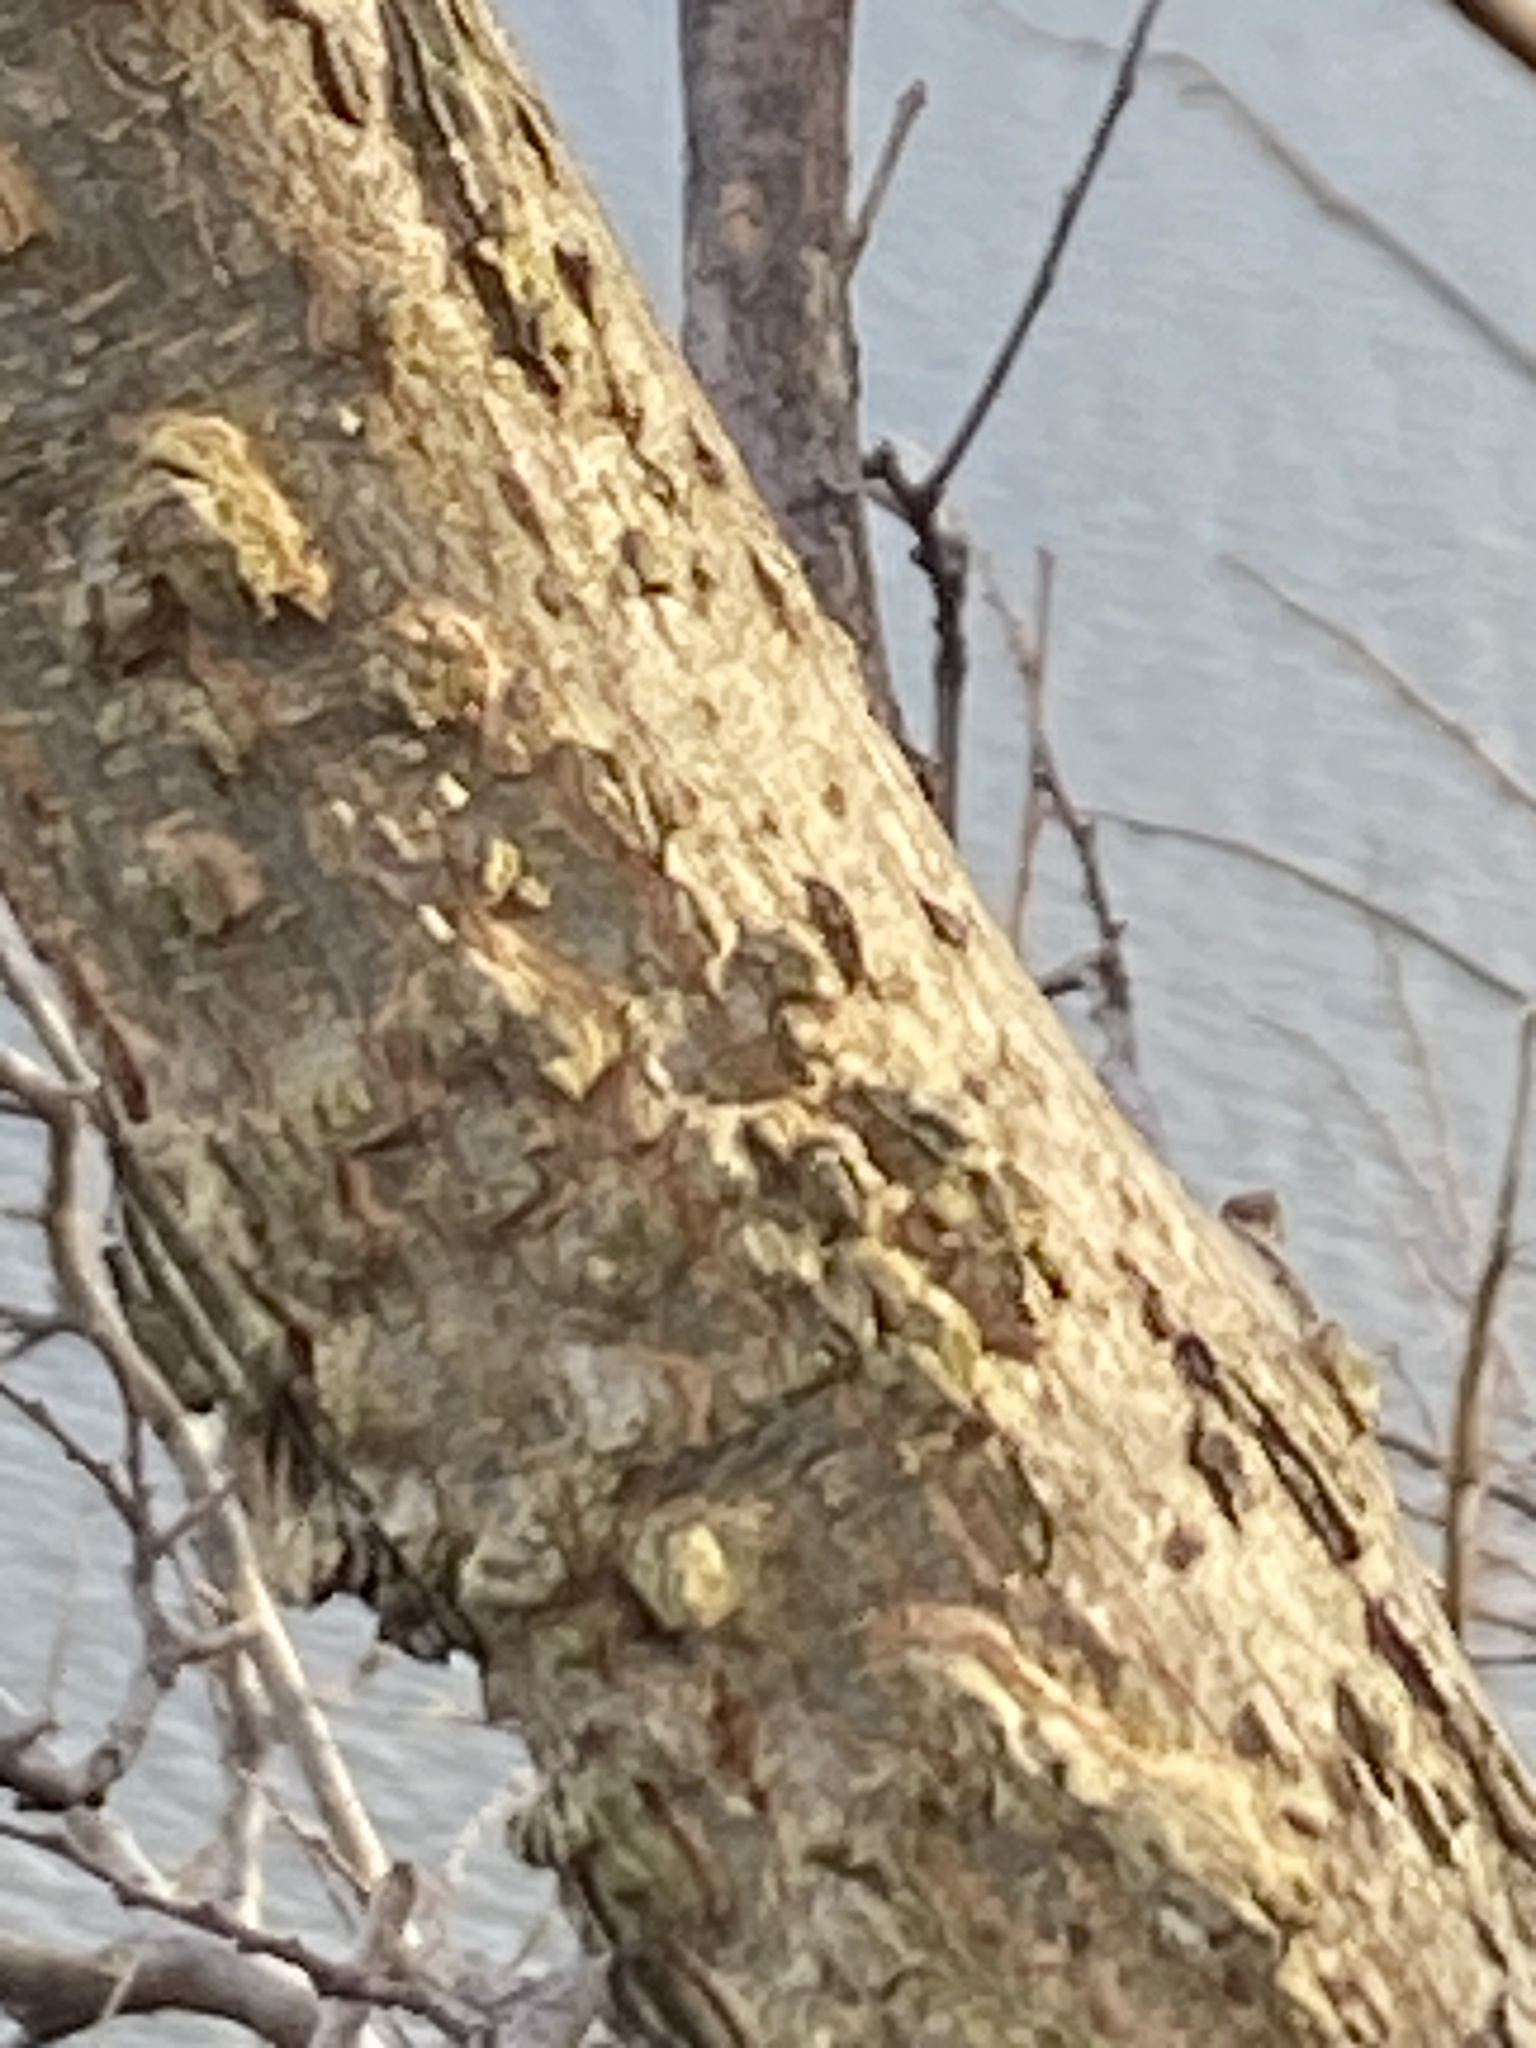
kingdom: Plantae
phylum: Tracheophyta
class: Magnoliopsida
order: Rosales
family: Cannabaceae
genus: Celtis
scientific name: Celtis occidentalis
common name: Common hackberry
